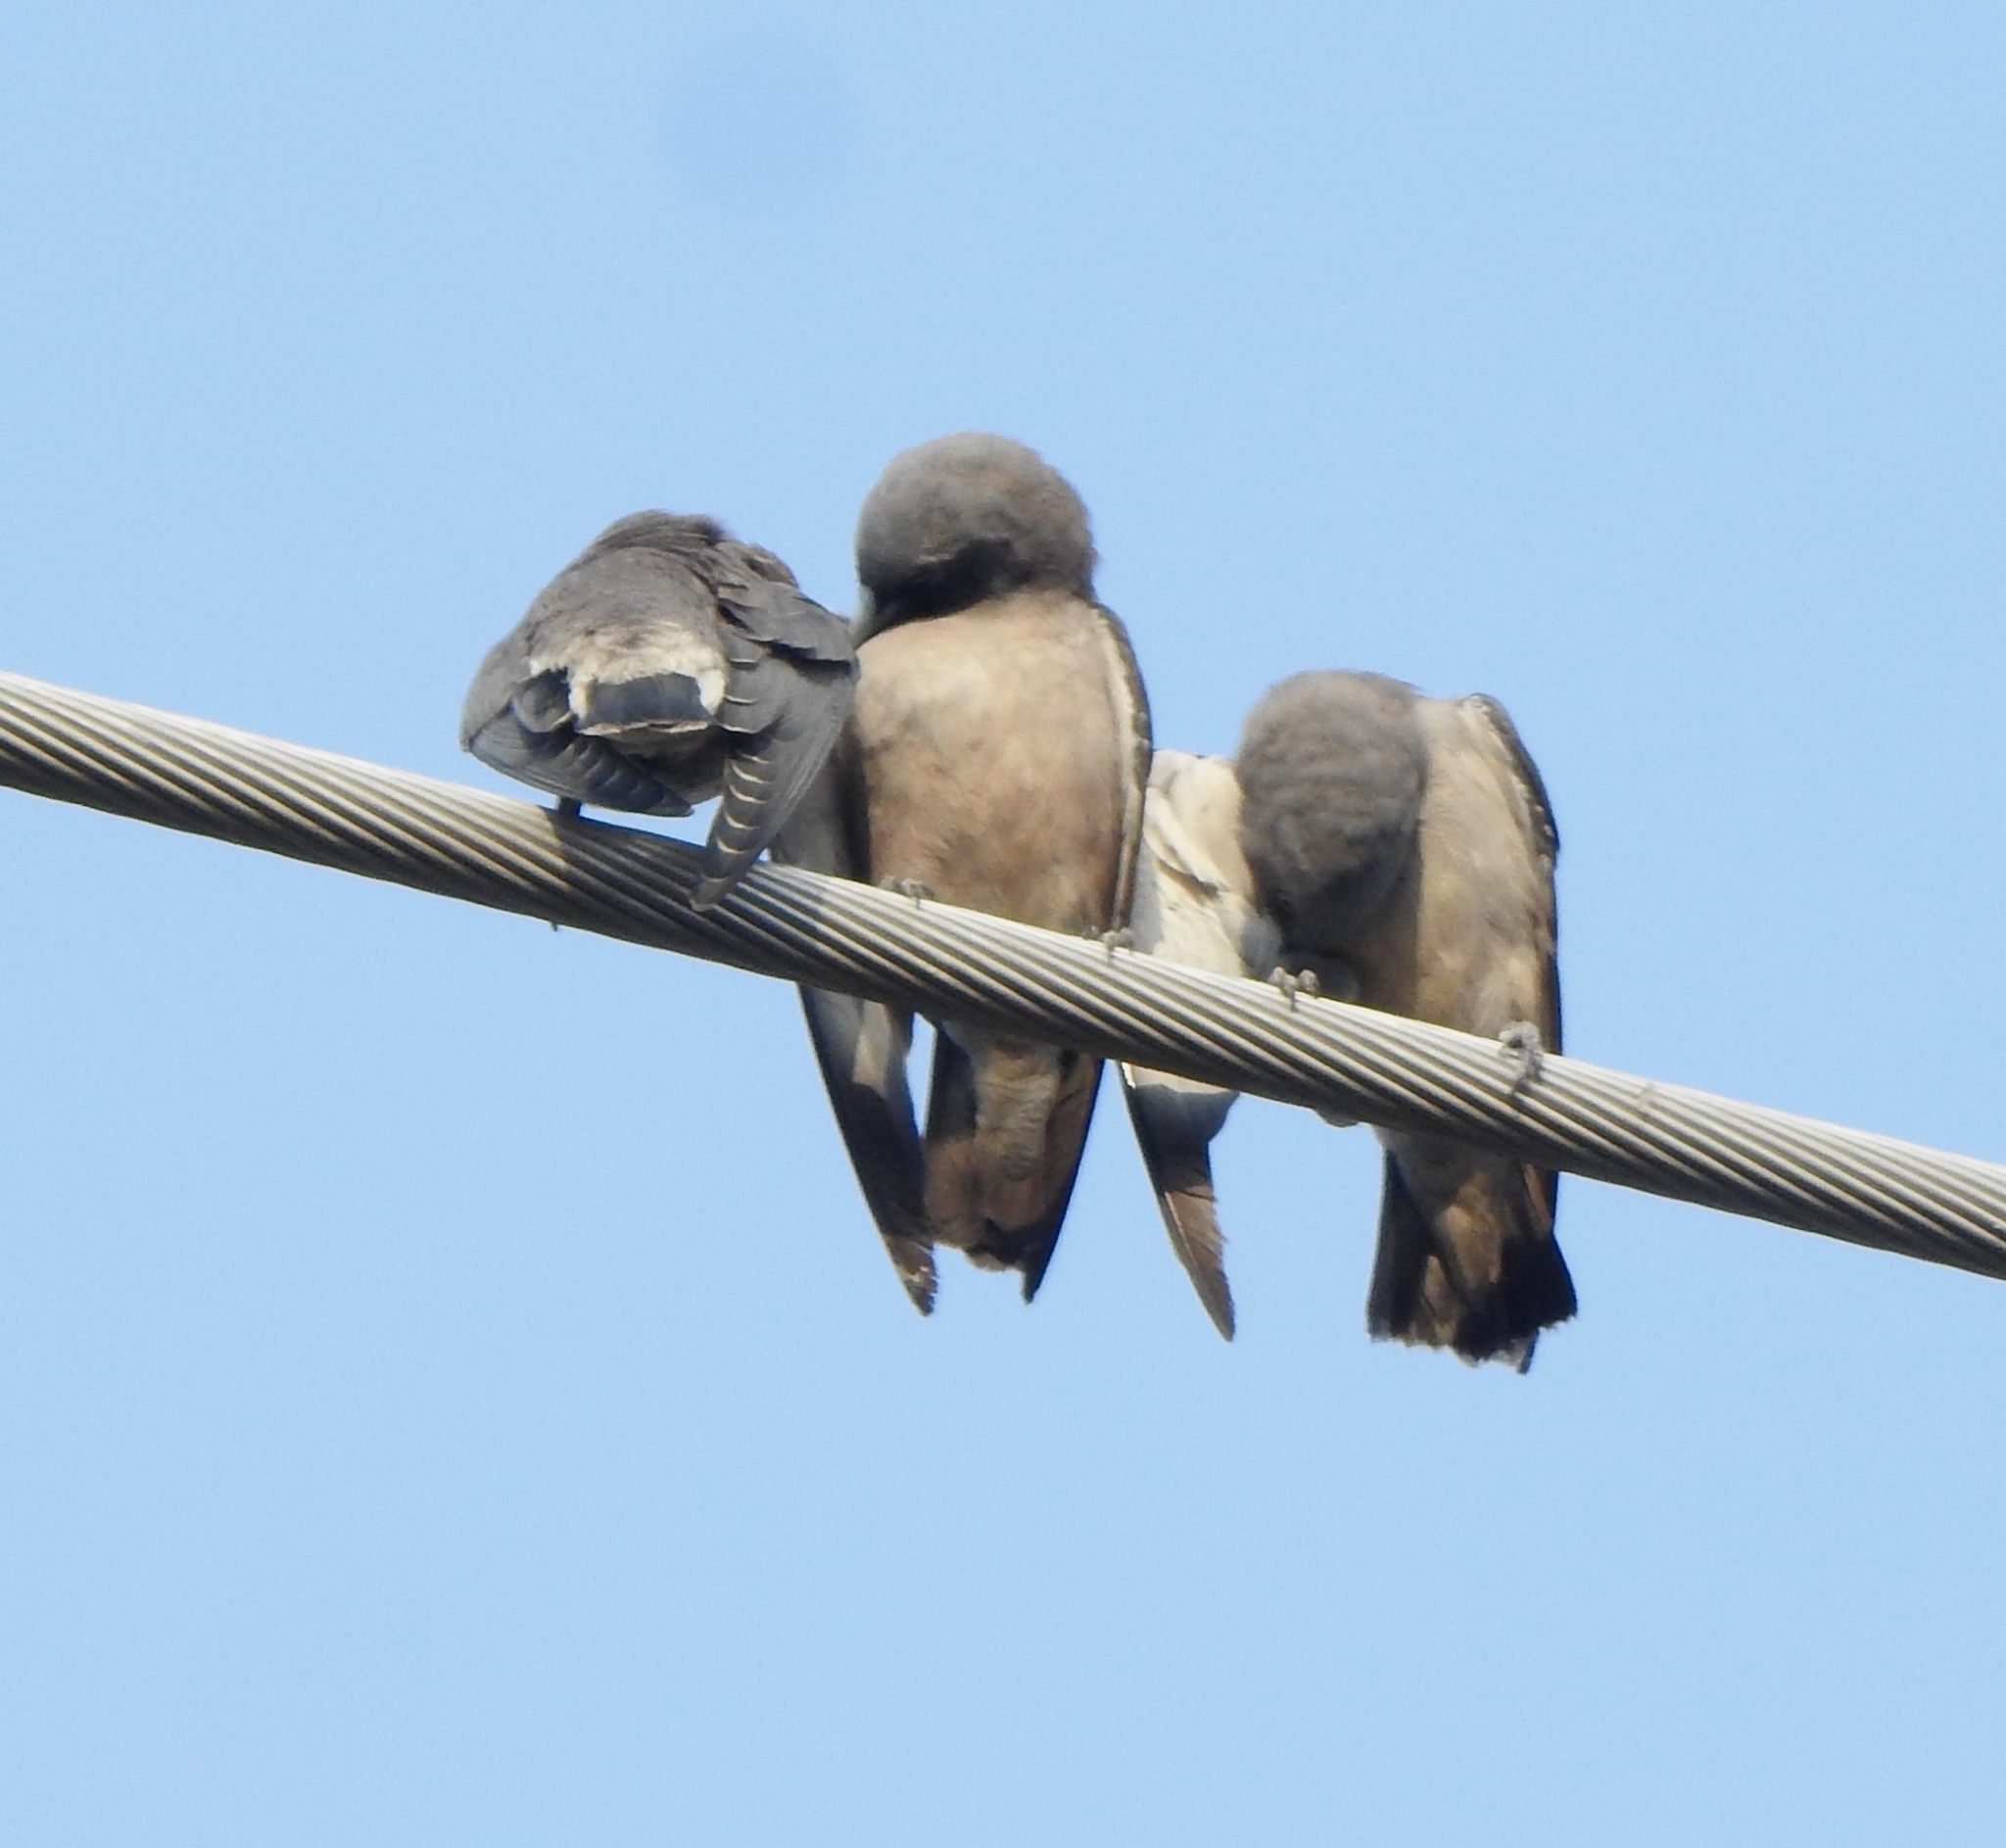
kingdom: Animalia
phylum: Chordata
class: Aves
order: Passeriformes
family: Artamidae
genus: Artamus
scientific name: Artamus fuscus
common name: Ashy woodswallow
